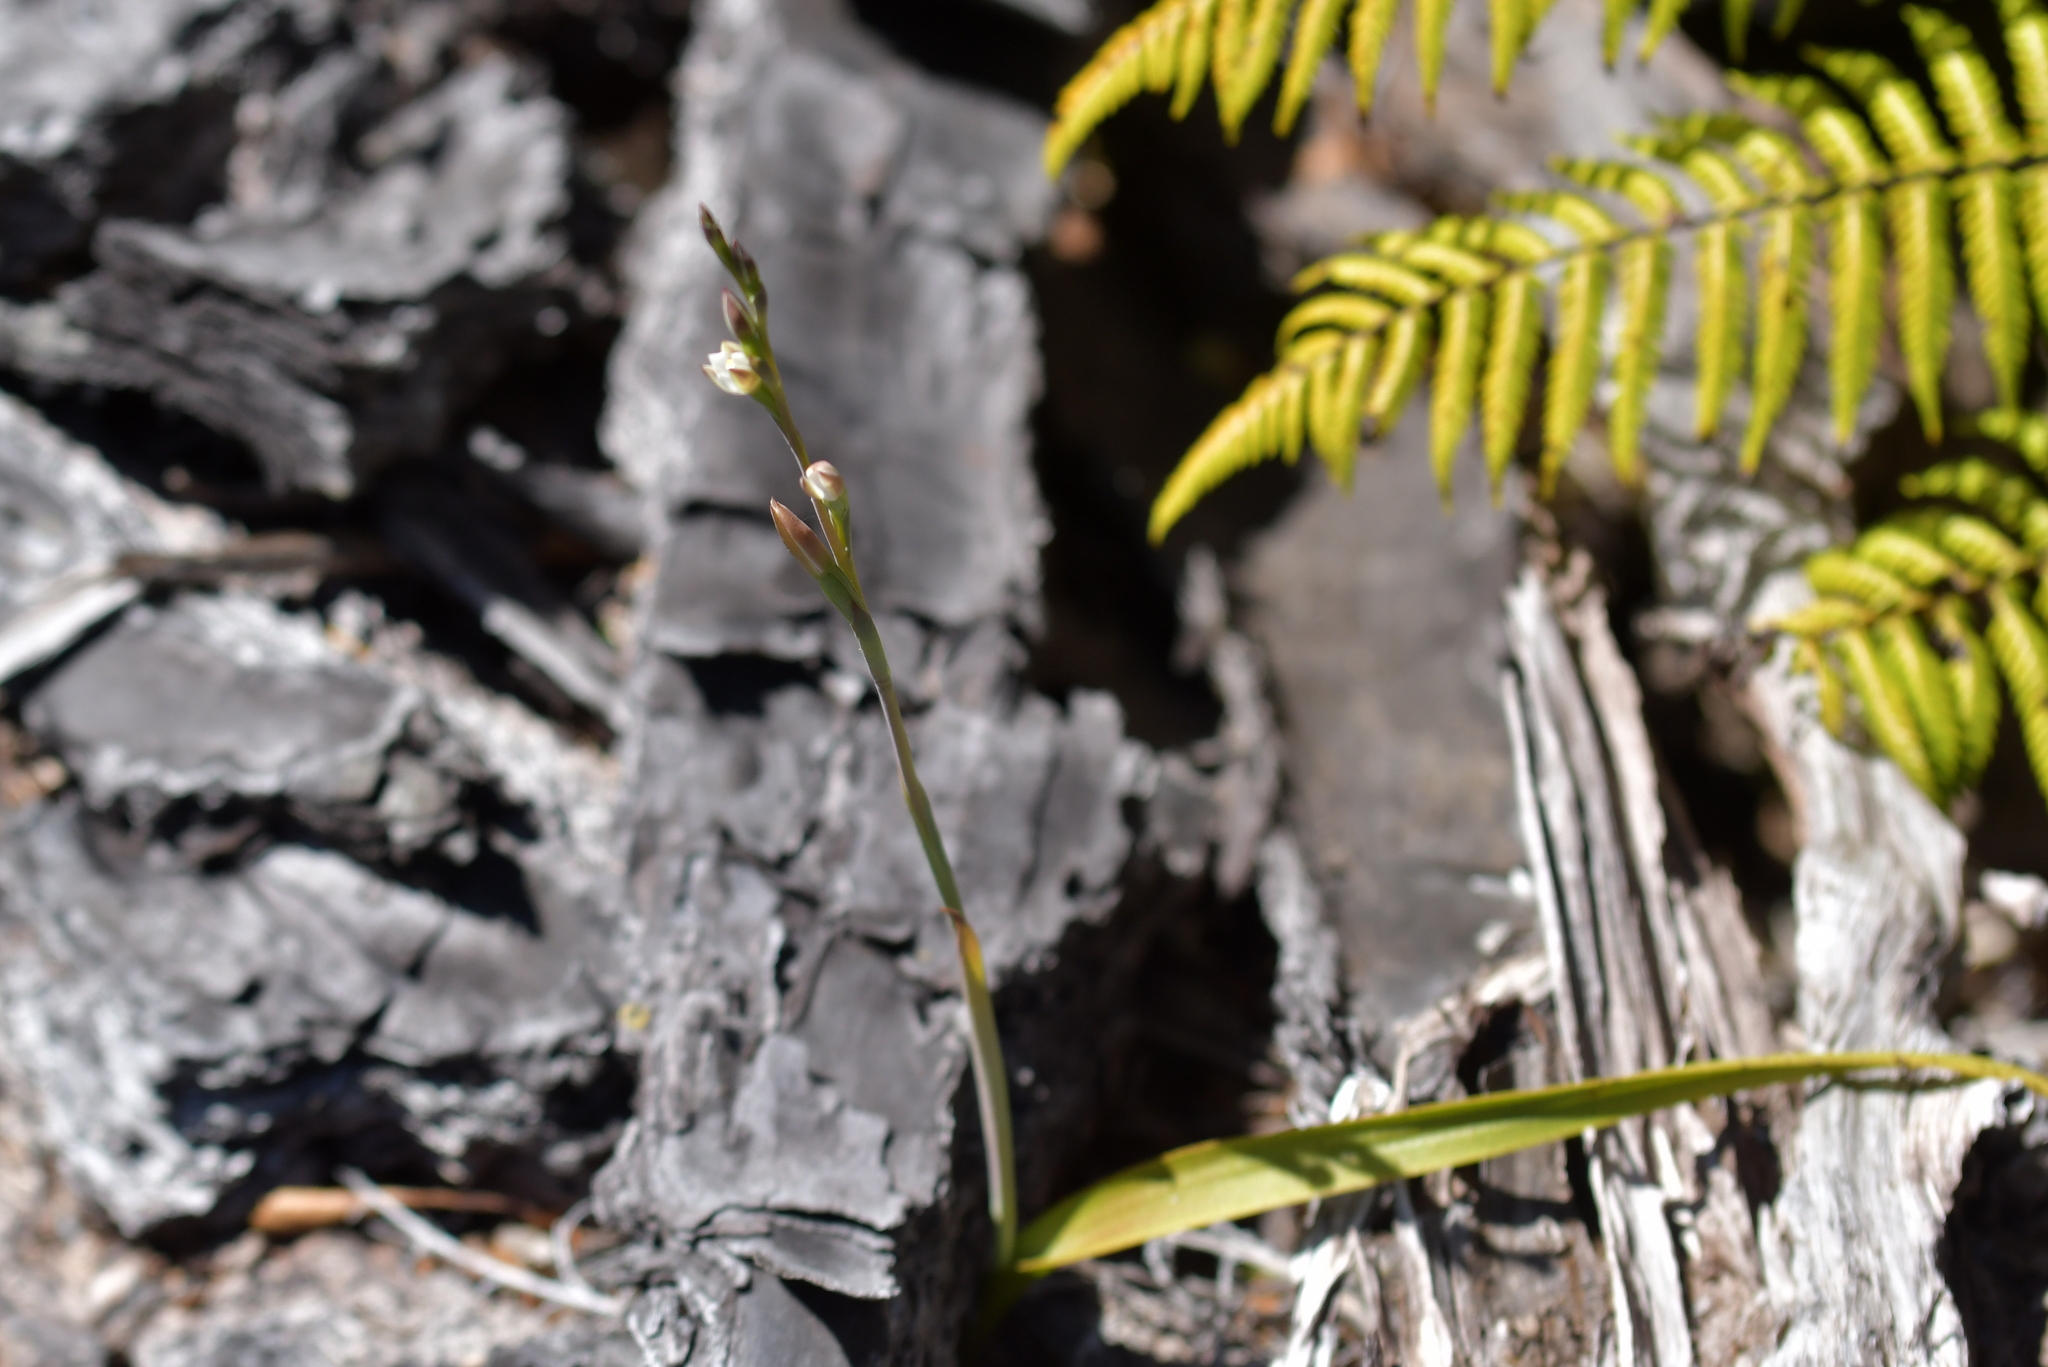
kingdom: Plantae
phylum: Tracheophyta
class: Liliopsida
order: Asparagales
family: Orchidaceae
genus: Thelymitra
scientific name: Thelymitra longifolia
